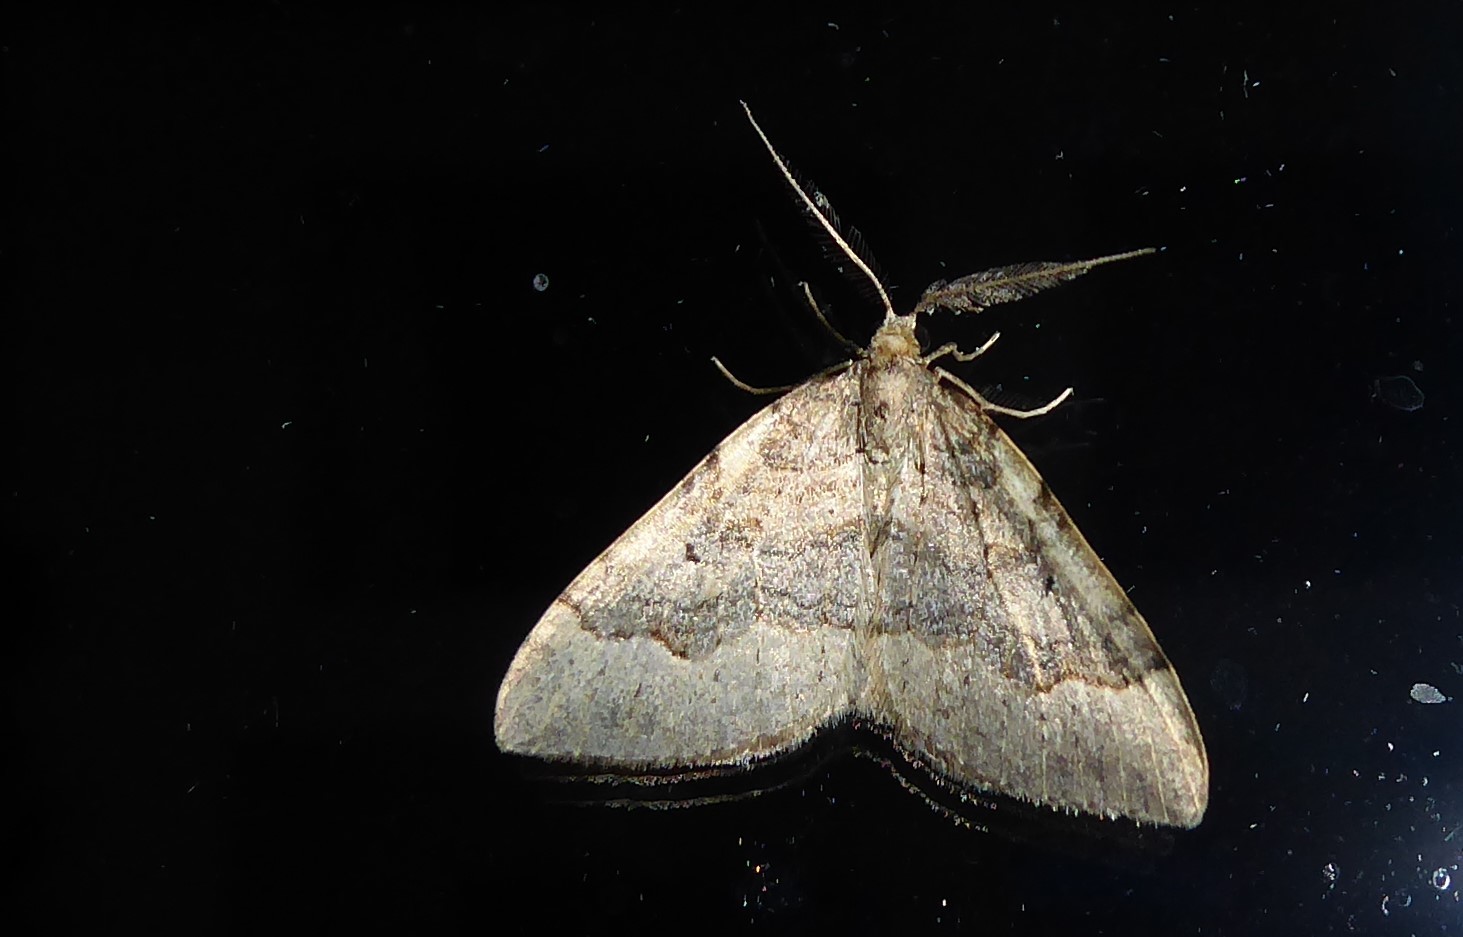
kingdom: Animalia
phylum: Arthropoda
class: Insecta
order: Lepidoptera
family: Geometridae
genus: Epyaxa
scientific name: Epyaxa rosearia
